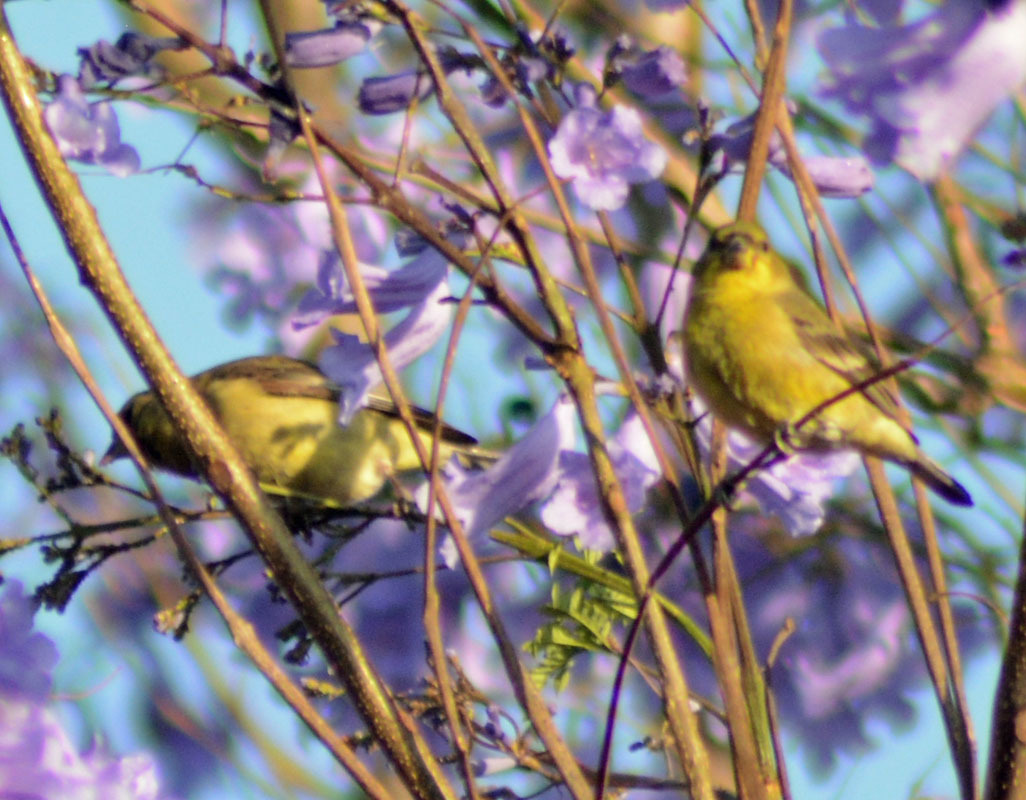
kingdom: Animalia
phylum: Chordata
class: Aves
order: Passeriformes
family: Fringillidae
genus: Spinus
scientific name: Spinus psaltria
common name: Lesser goldfinch
